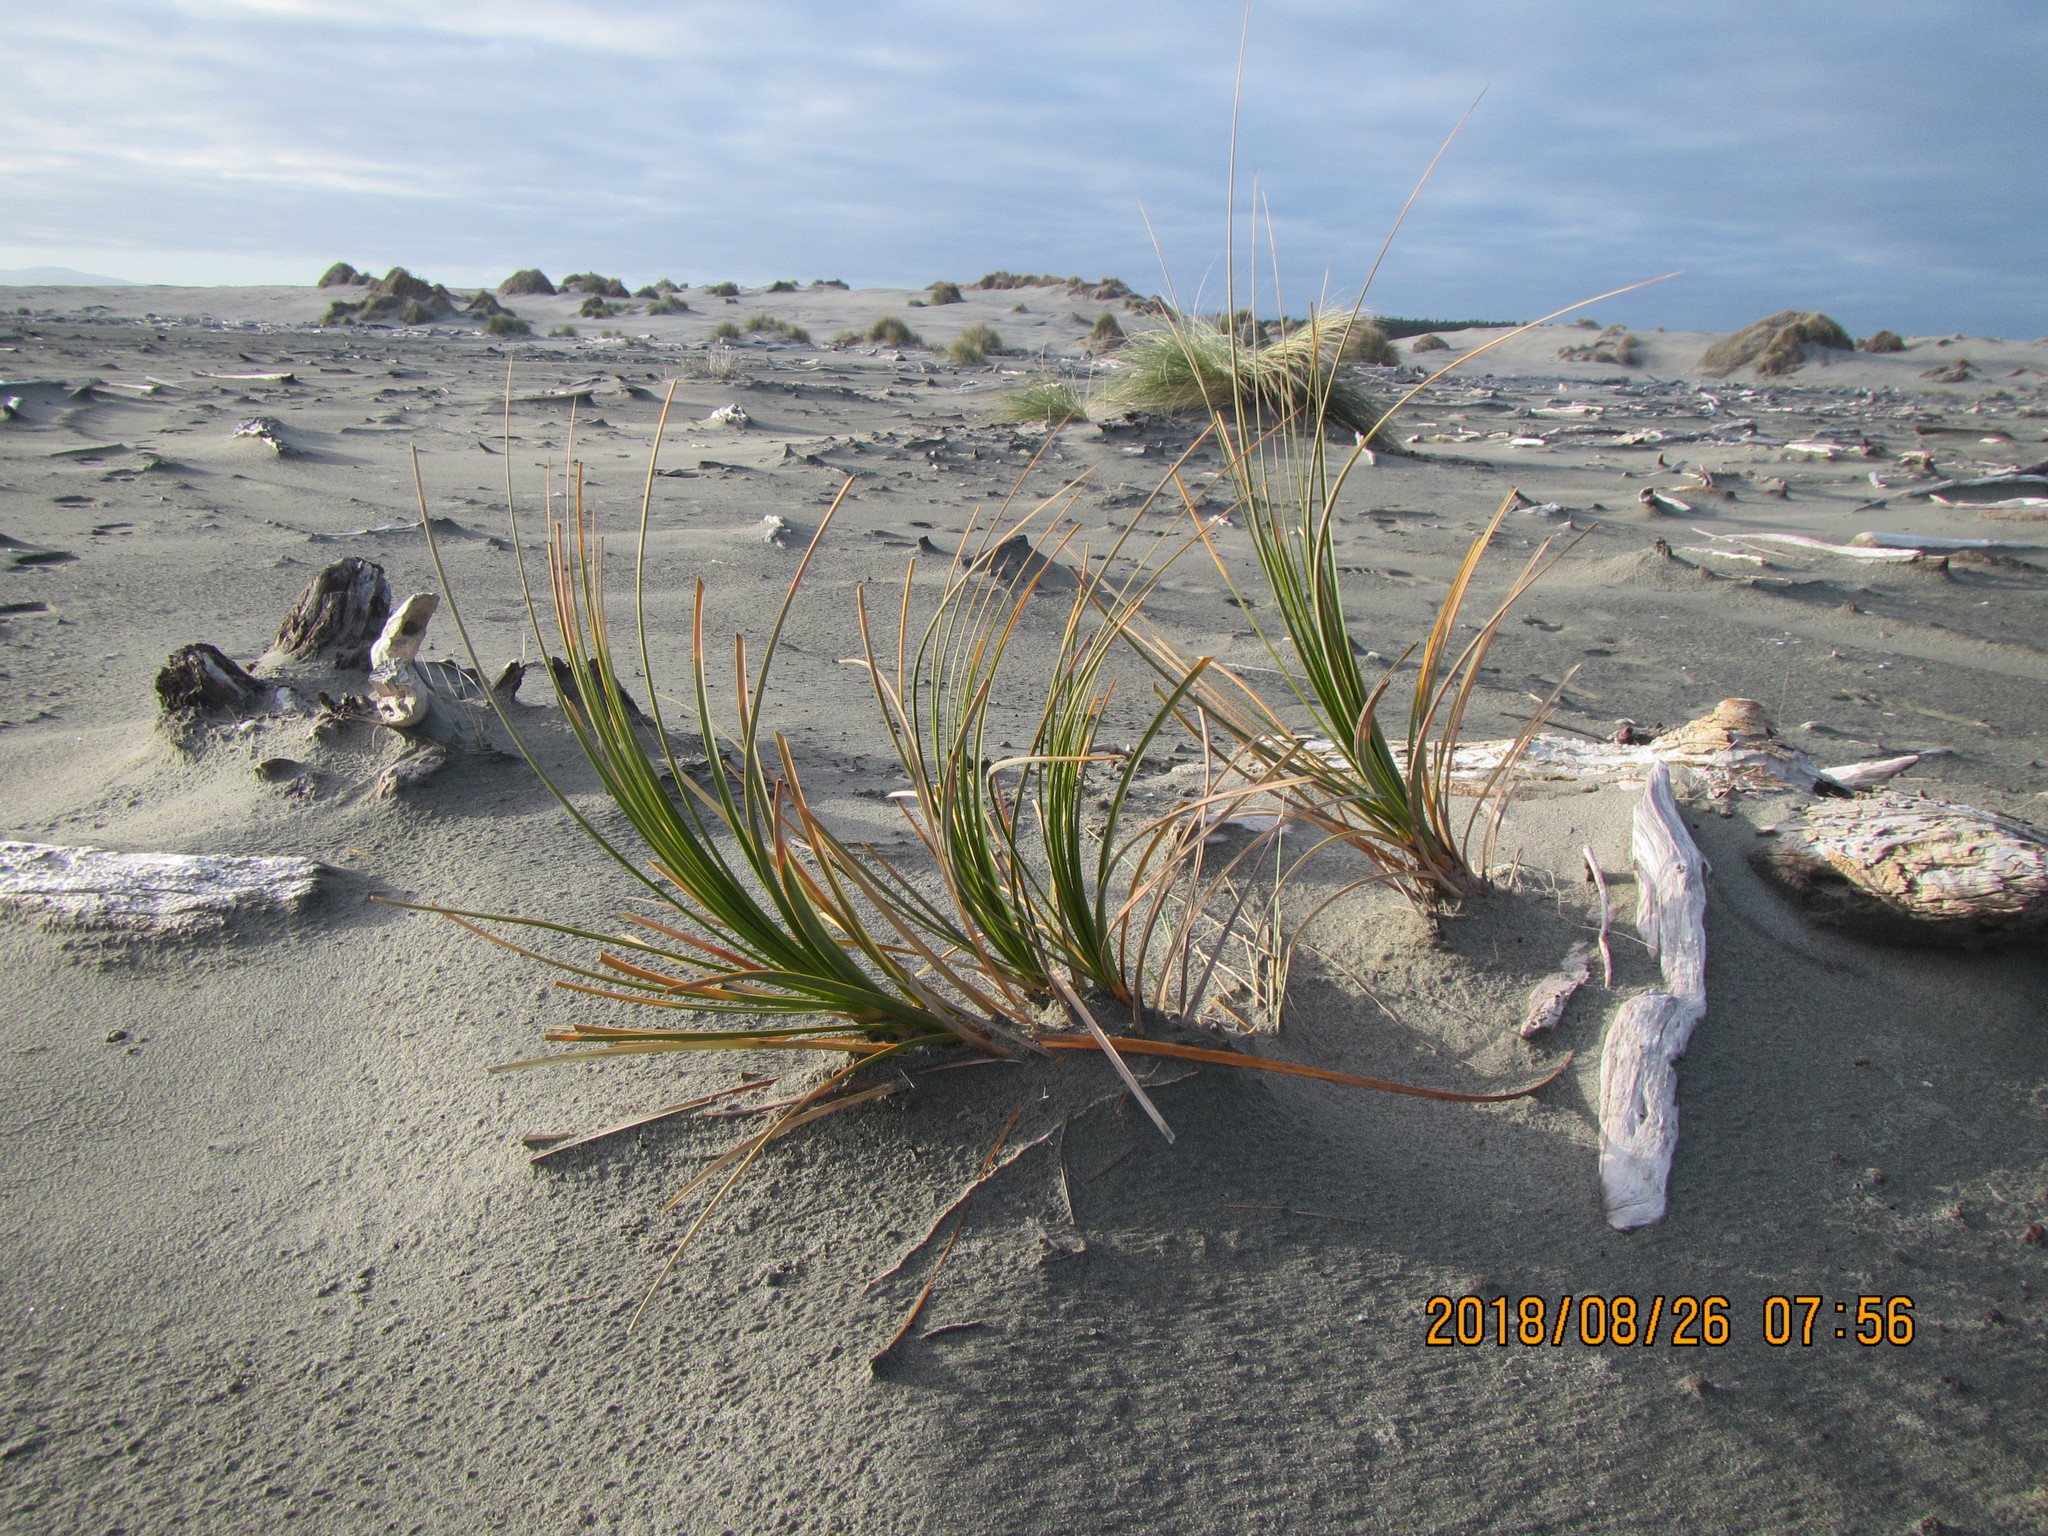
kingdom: Plantae
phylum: Tracheophyta
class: Liliopsida
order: Poales
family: Cyperaceae
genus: Ficinia
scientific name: Ficinia spiralis
